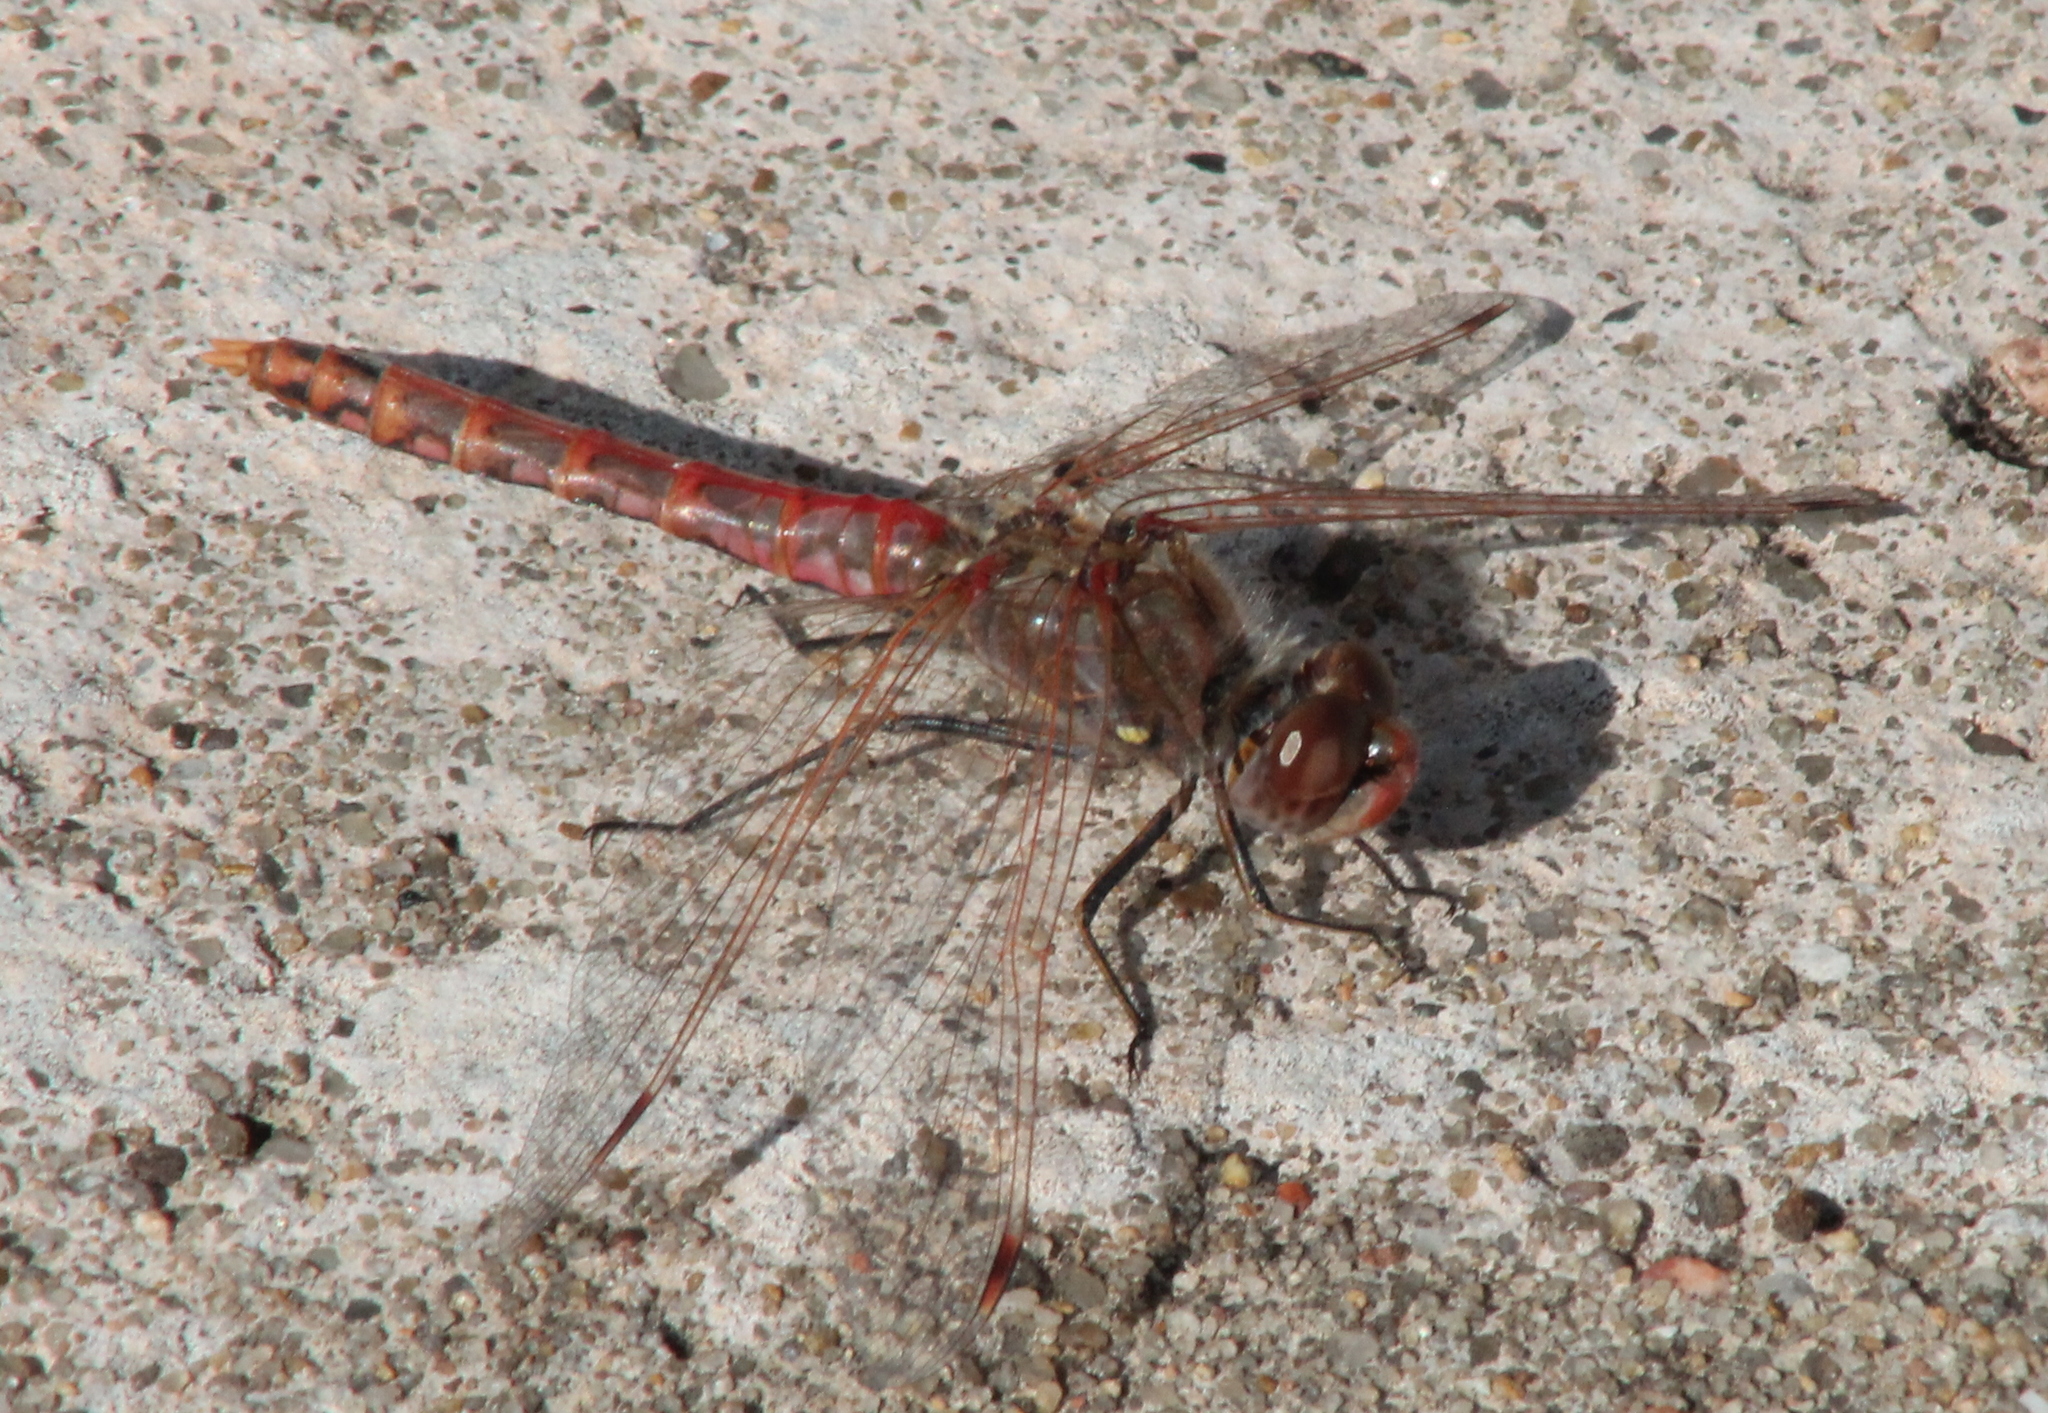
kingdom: Animalia
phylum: Arthropoda
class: Insecta
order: Odonata
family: Libellulidae
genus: Sympetrum
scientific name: Sympetrum corruptum
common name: Variegated meadowhawk
